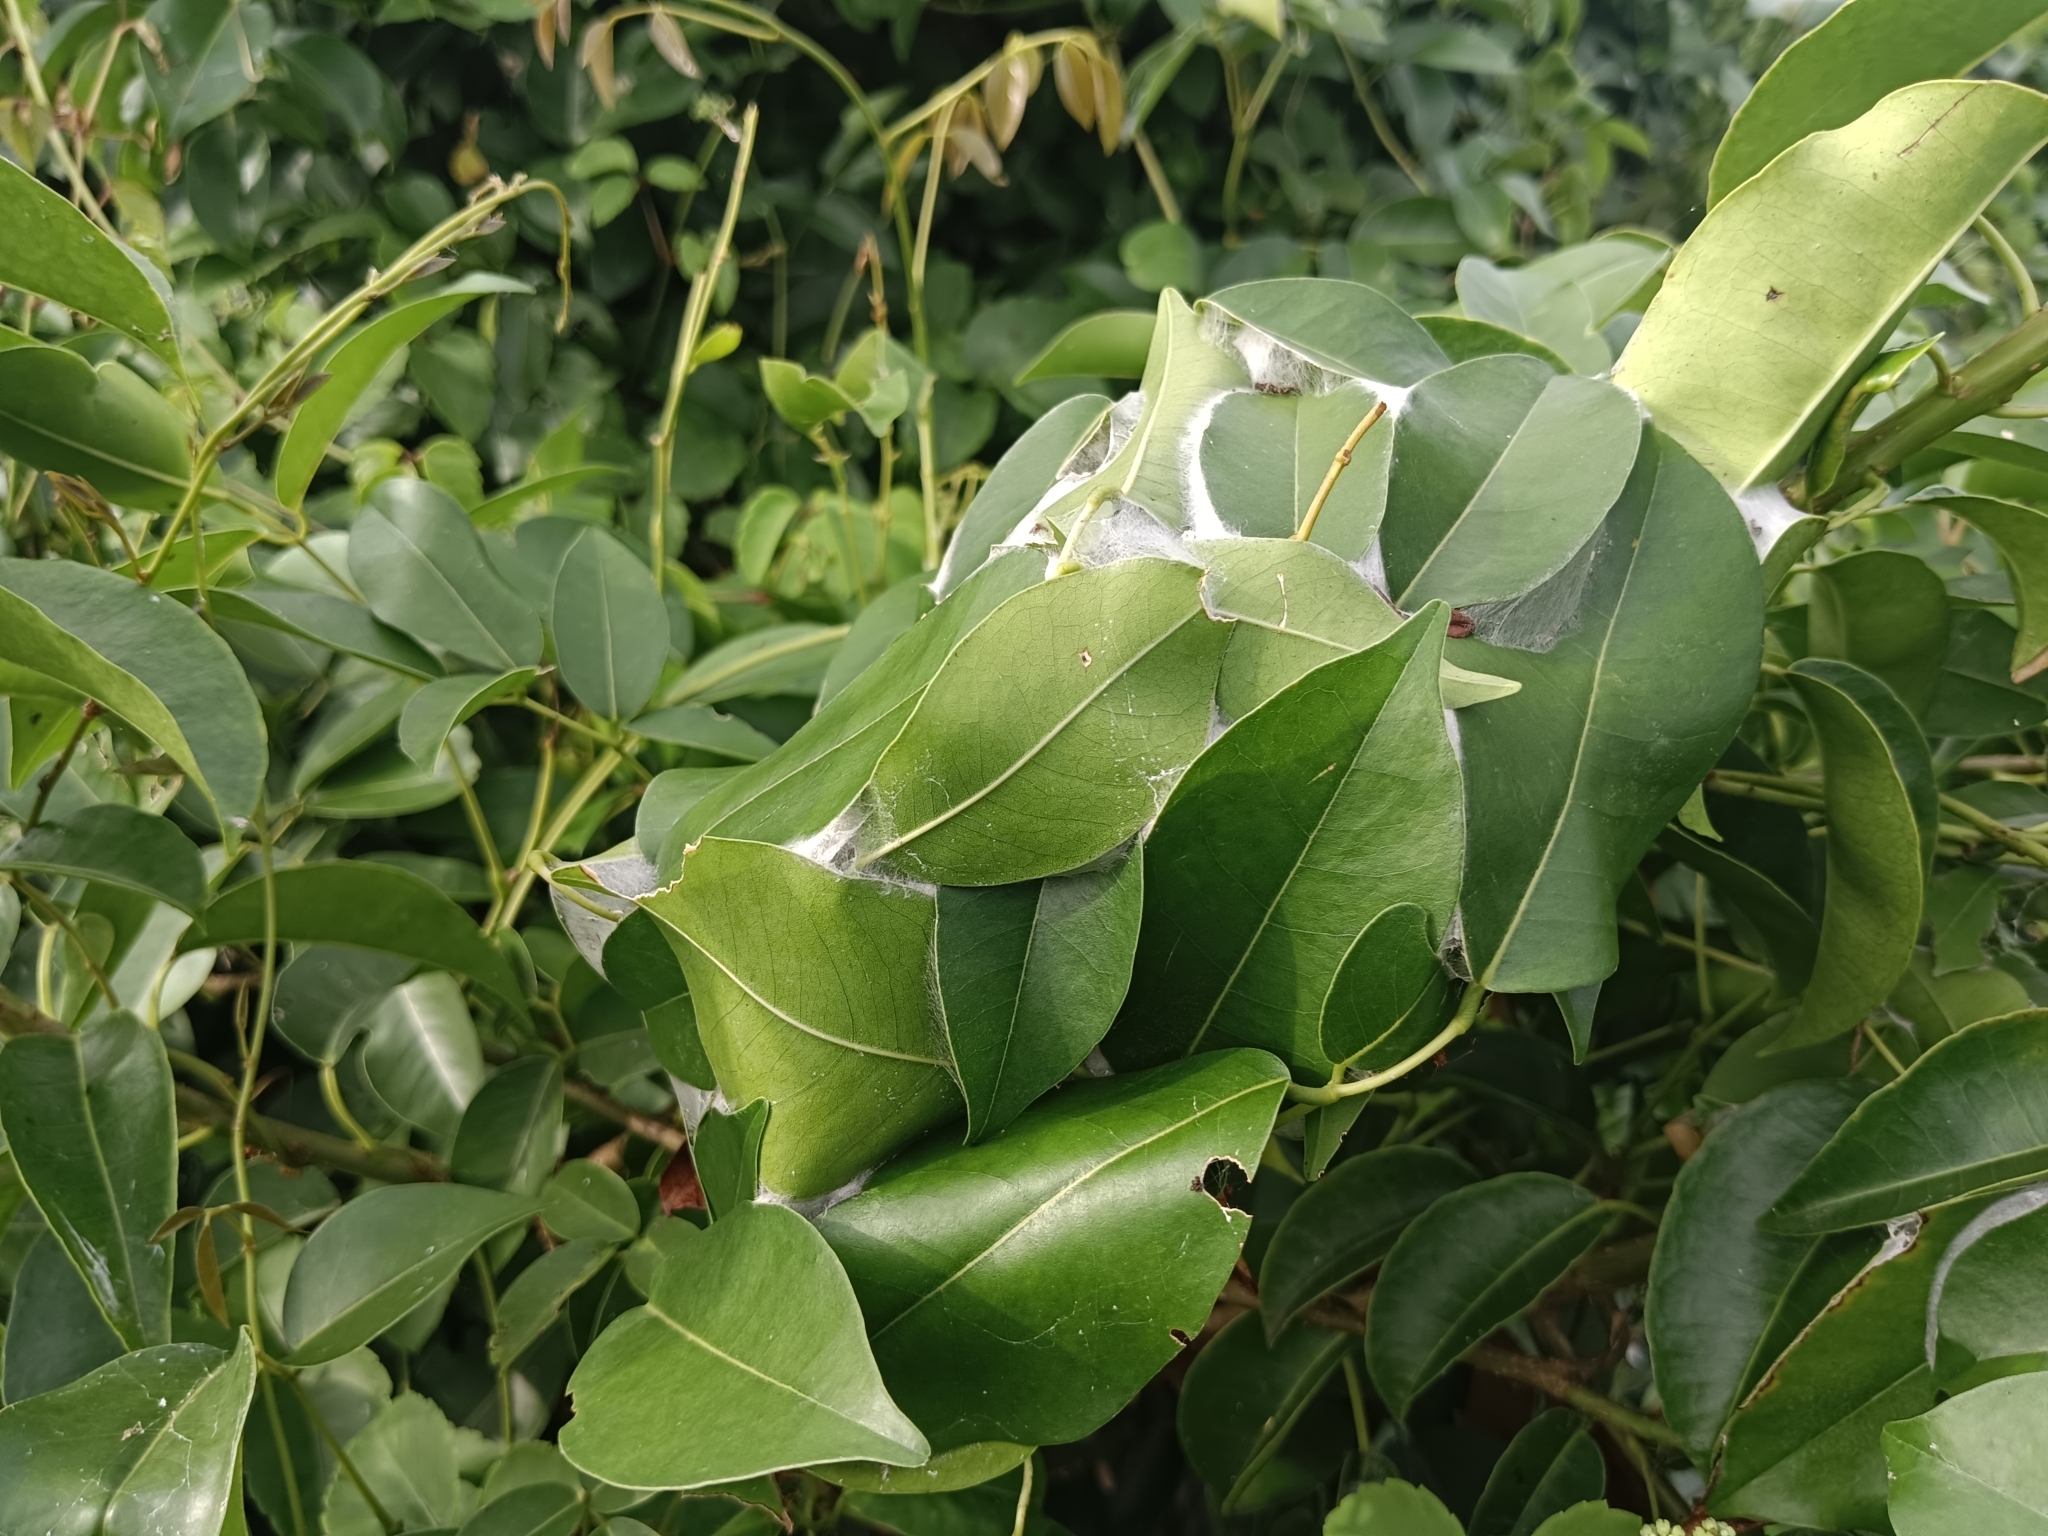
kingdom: Animalia
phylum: Arthropoda
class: Insecta
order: Hymenoptera
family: Formicidae
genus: Oecophylla
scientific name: Oecophylla smaragdina
